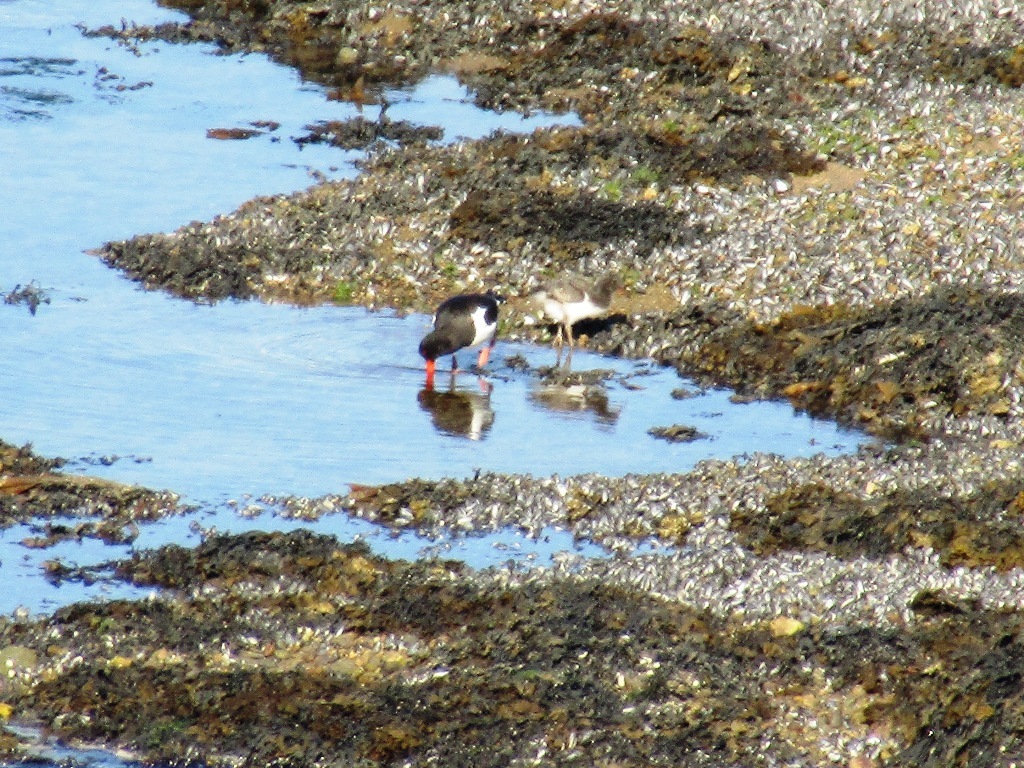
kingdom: Animalia
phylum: Chordata
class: Aves
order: Charadriiformes
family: Haematopodidae
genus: Haematopus
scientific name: Haematopus ostralegus
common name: Eurasian oystercatcher
